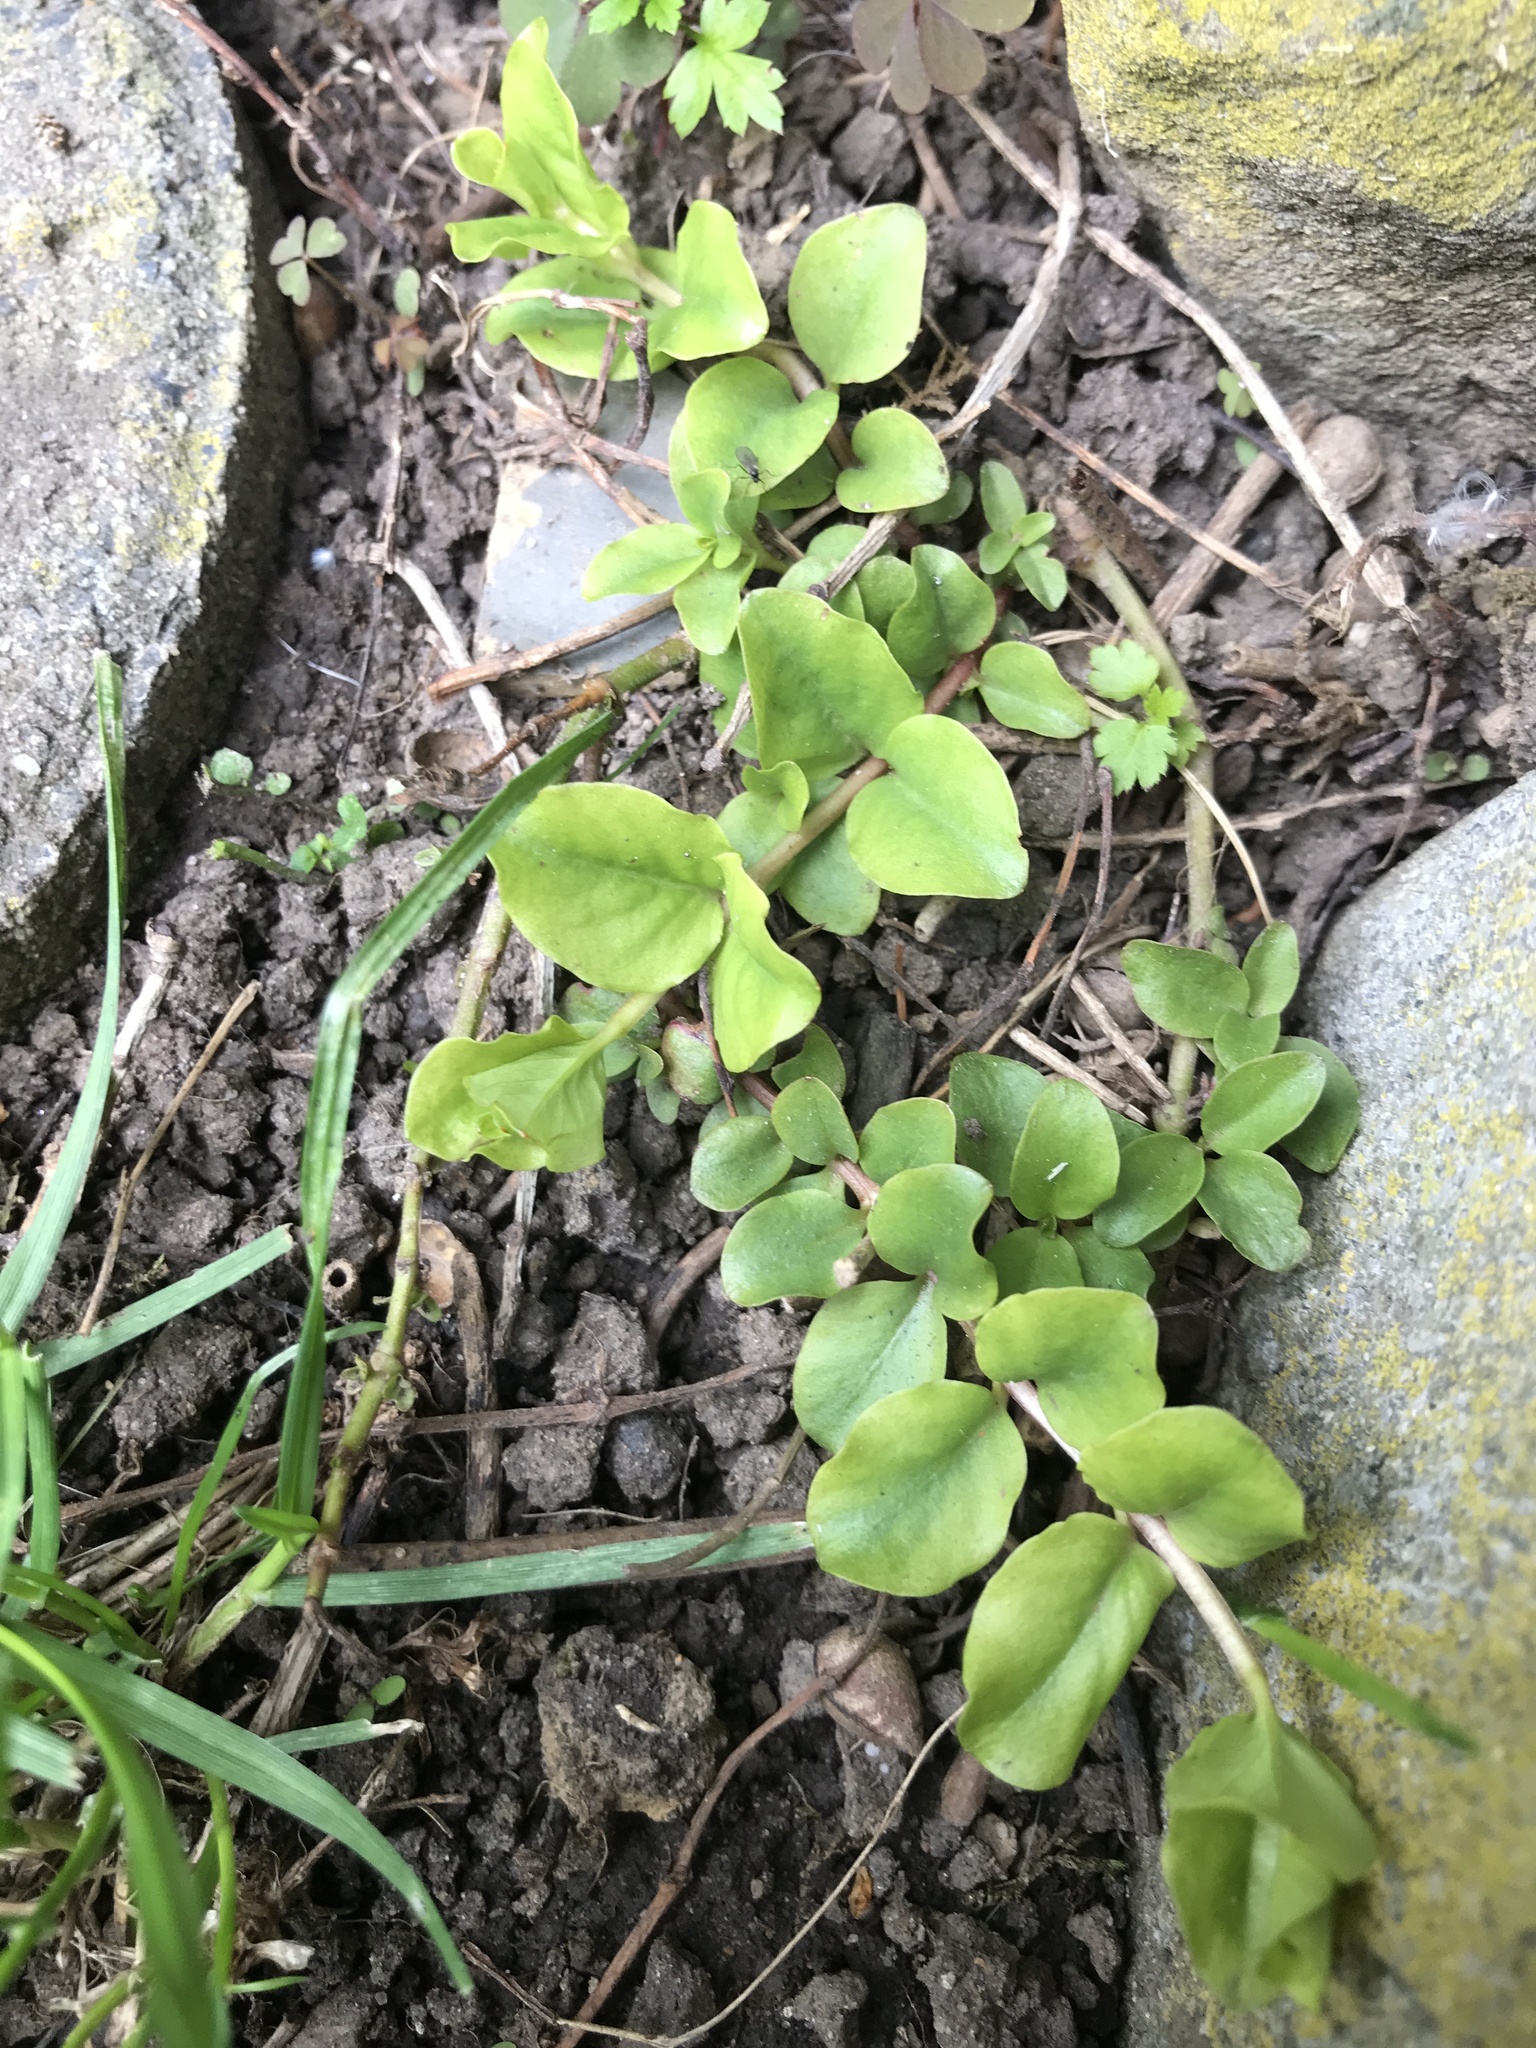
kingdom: Plantae
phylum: Tracheophyta
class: Magnoliopsida
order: Ericales
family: Primulaceae
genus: Lysimachia
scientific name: Lysimachia nummularia
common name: Moneywort
